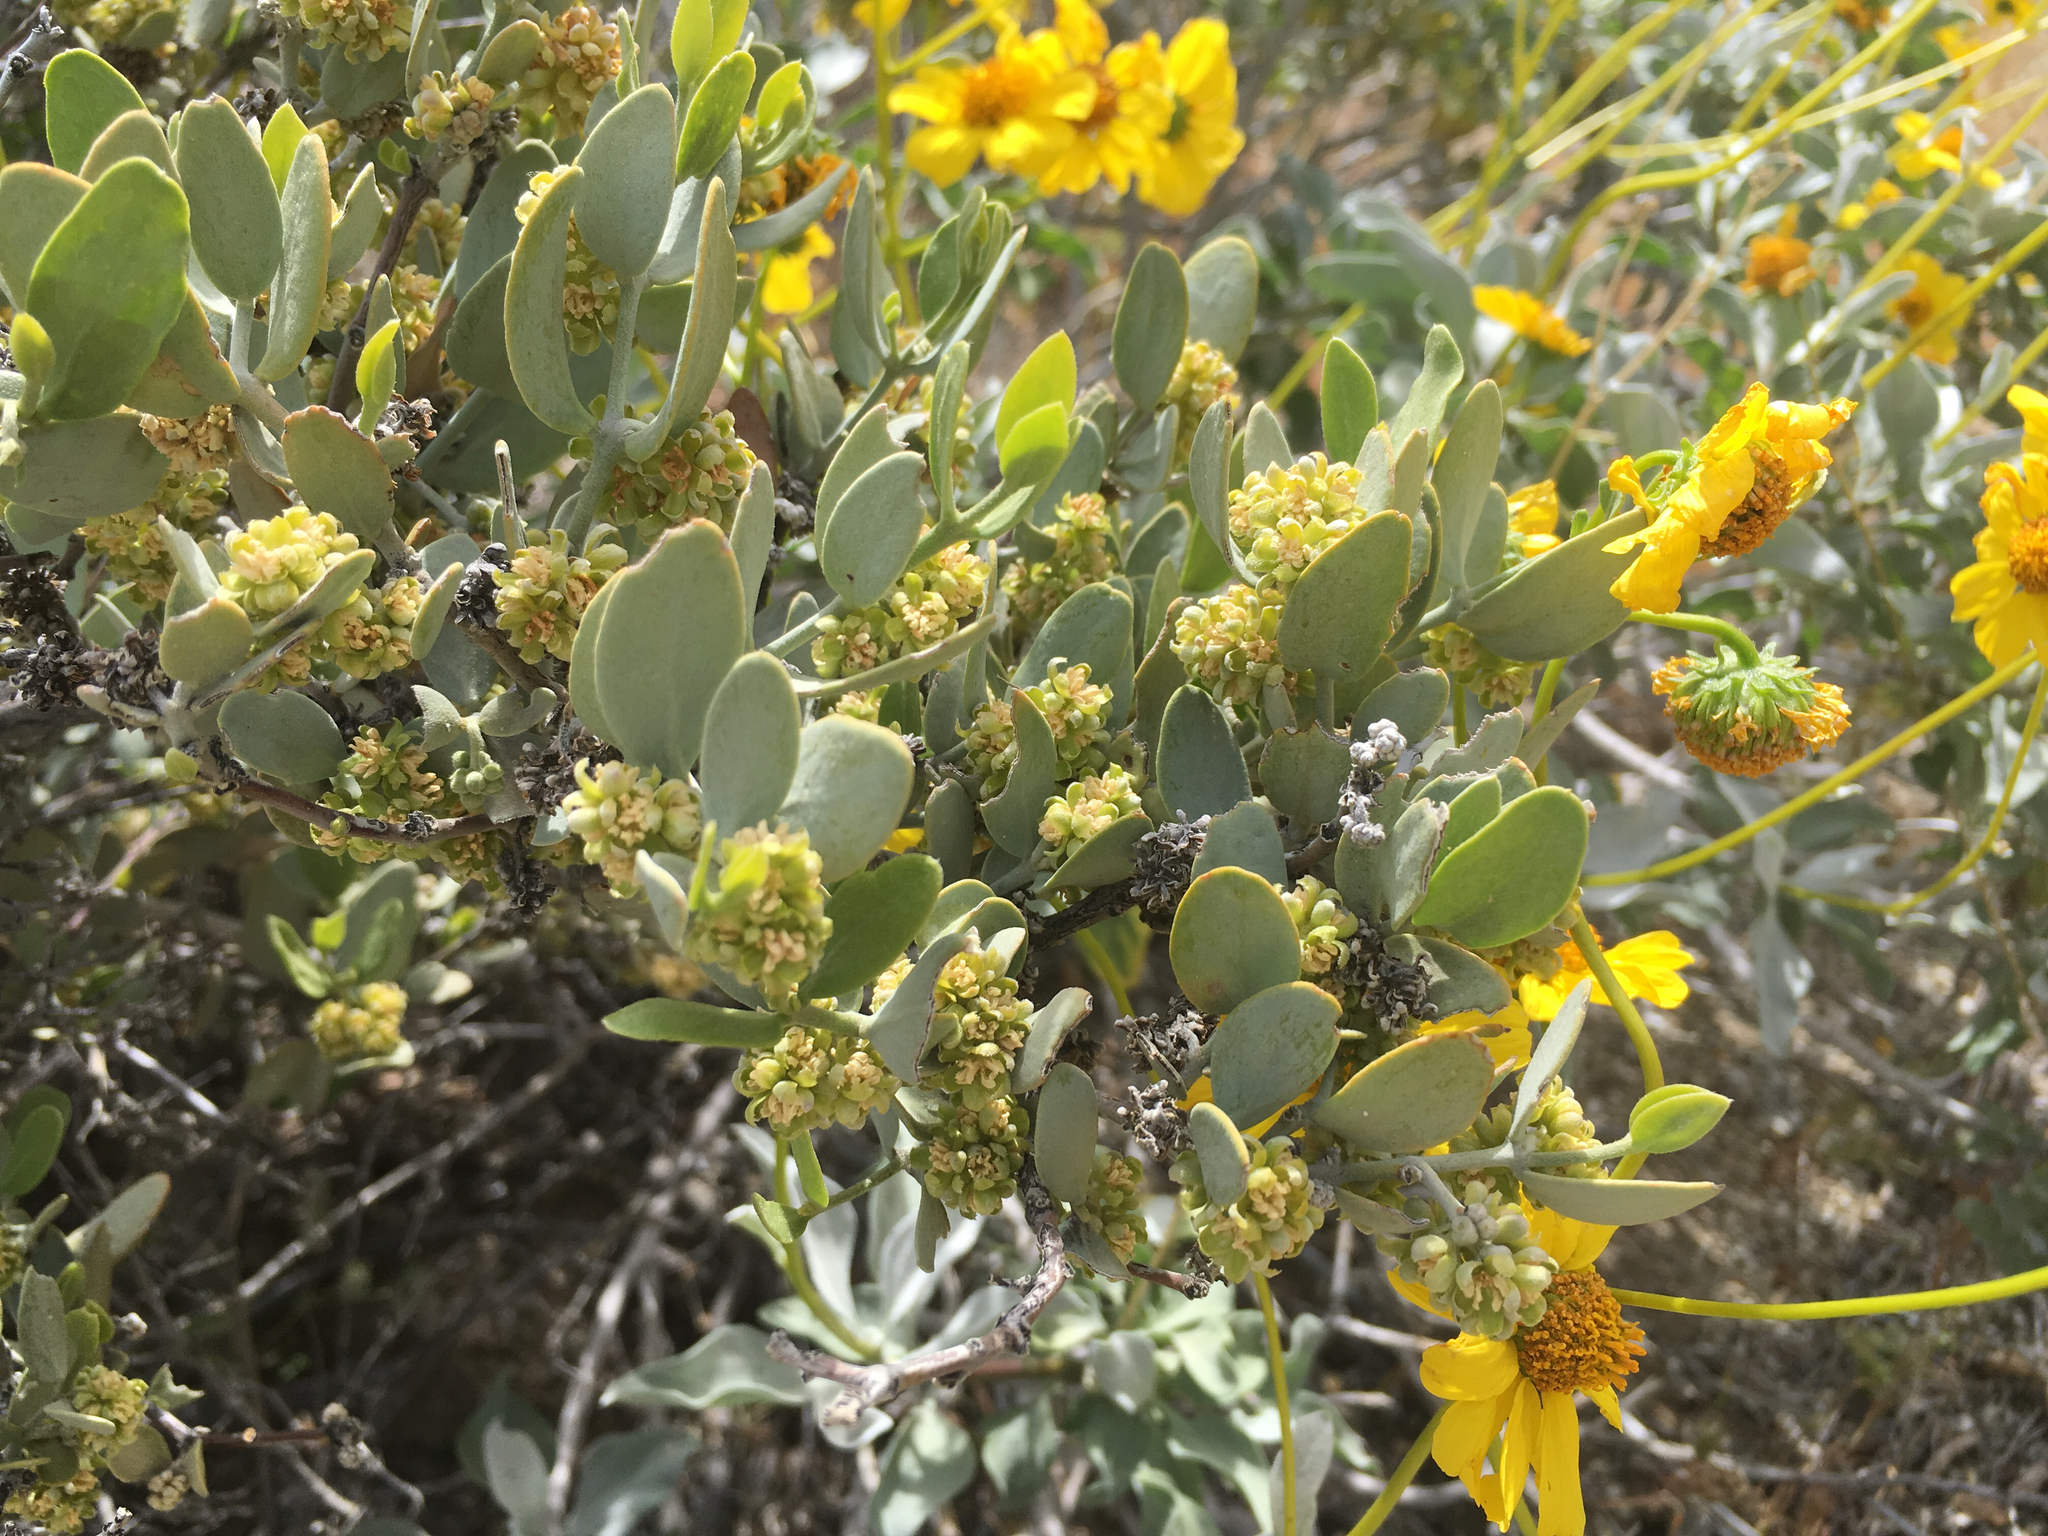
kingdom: Plantae
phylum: Tracheophyta
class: Magnoliopsida
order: Caryophyllales
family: Simmondsiaceae
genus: Simmondsia
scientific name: Simmondsia chinensis
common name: Jojoba
